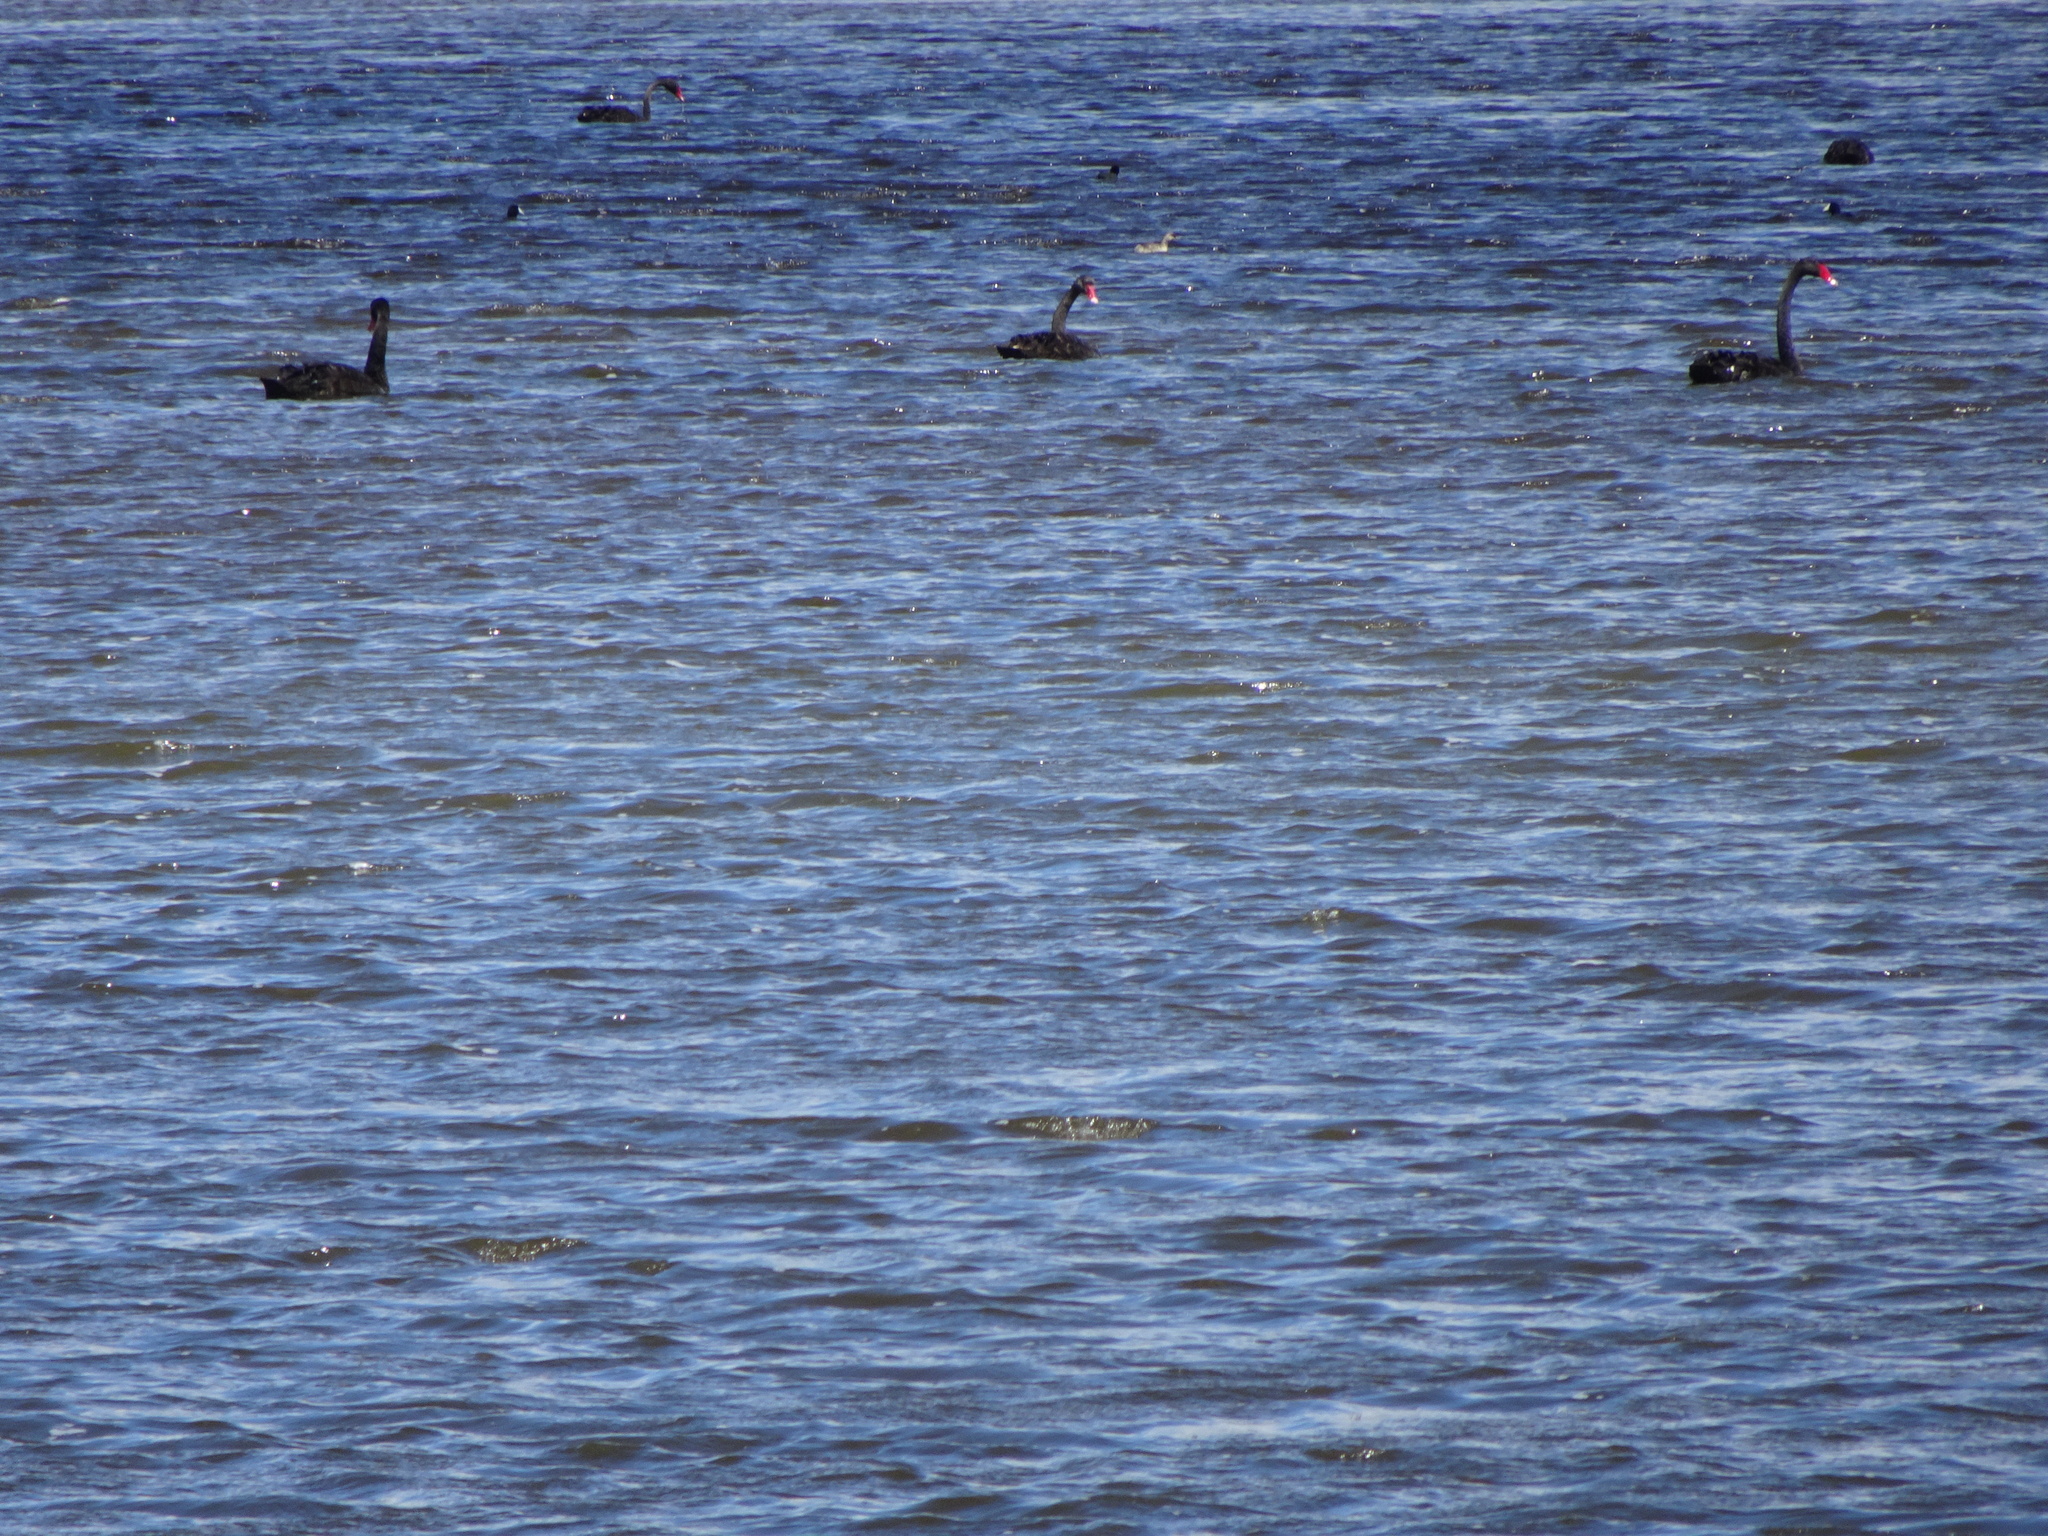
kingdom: Animalia
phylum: Chordata
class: Aves
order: Anseriformes
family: Anatidae
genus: Cygnus
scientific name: Cygnus atratus
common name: Black swan
